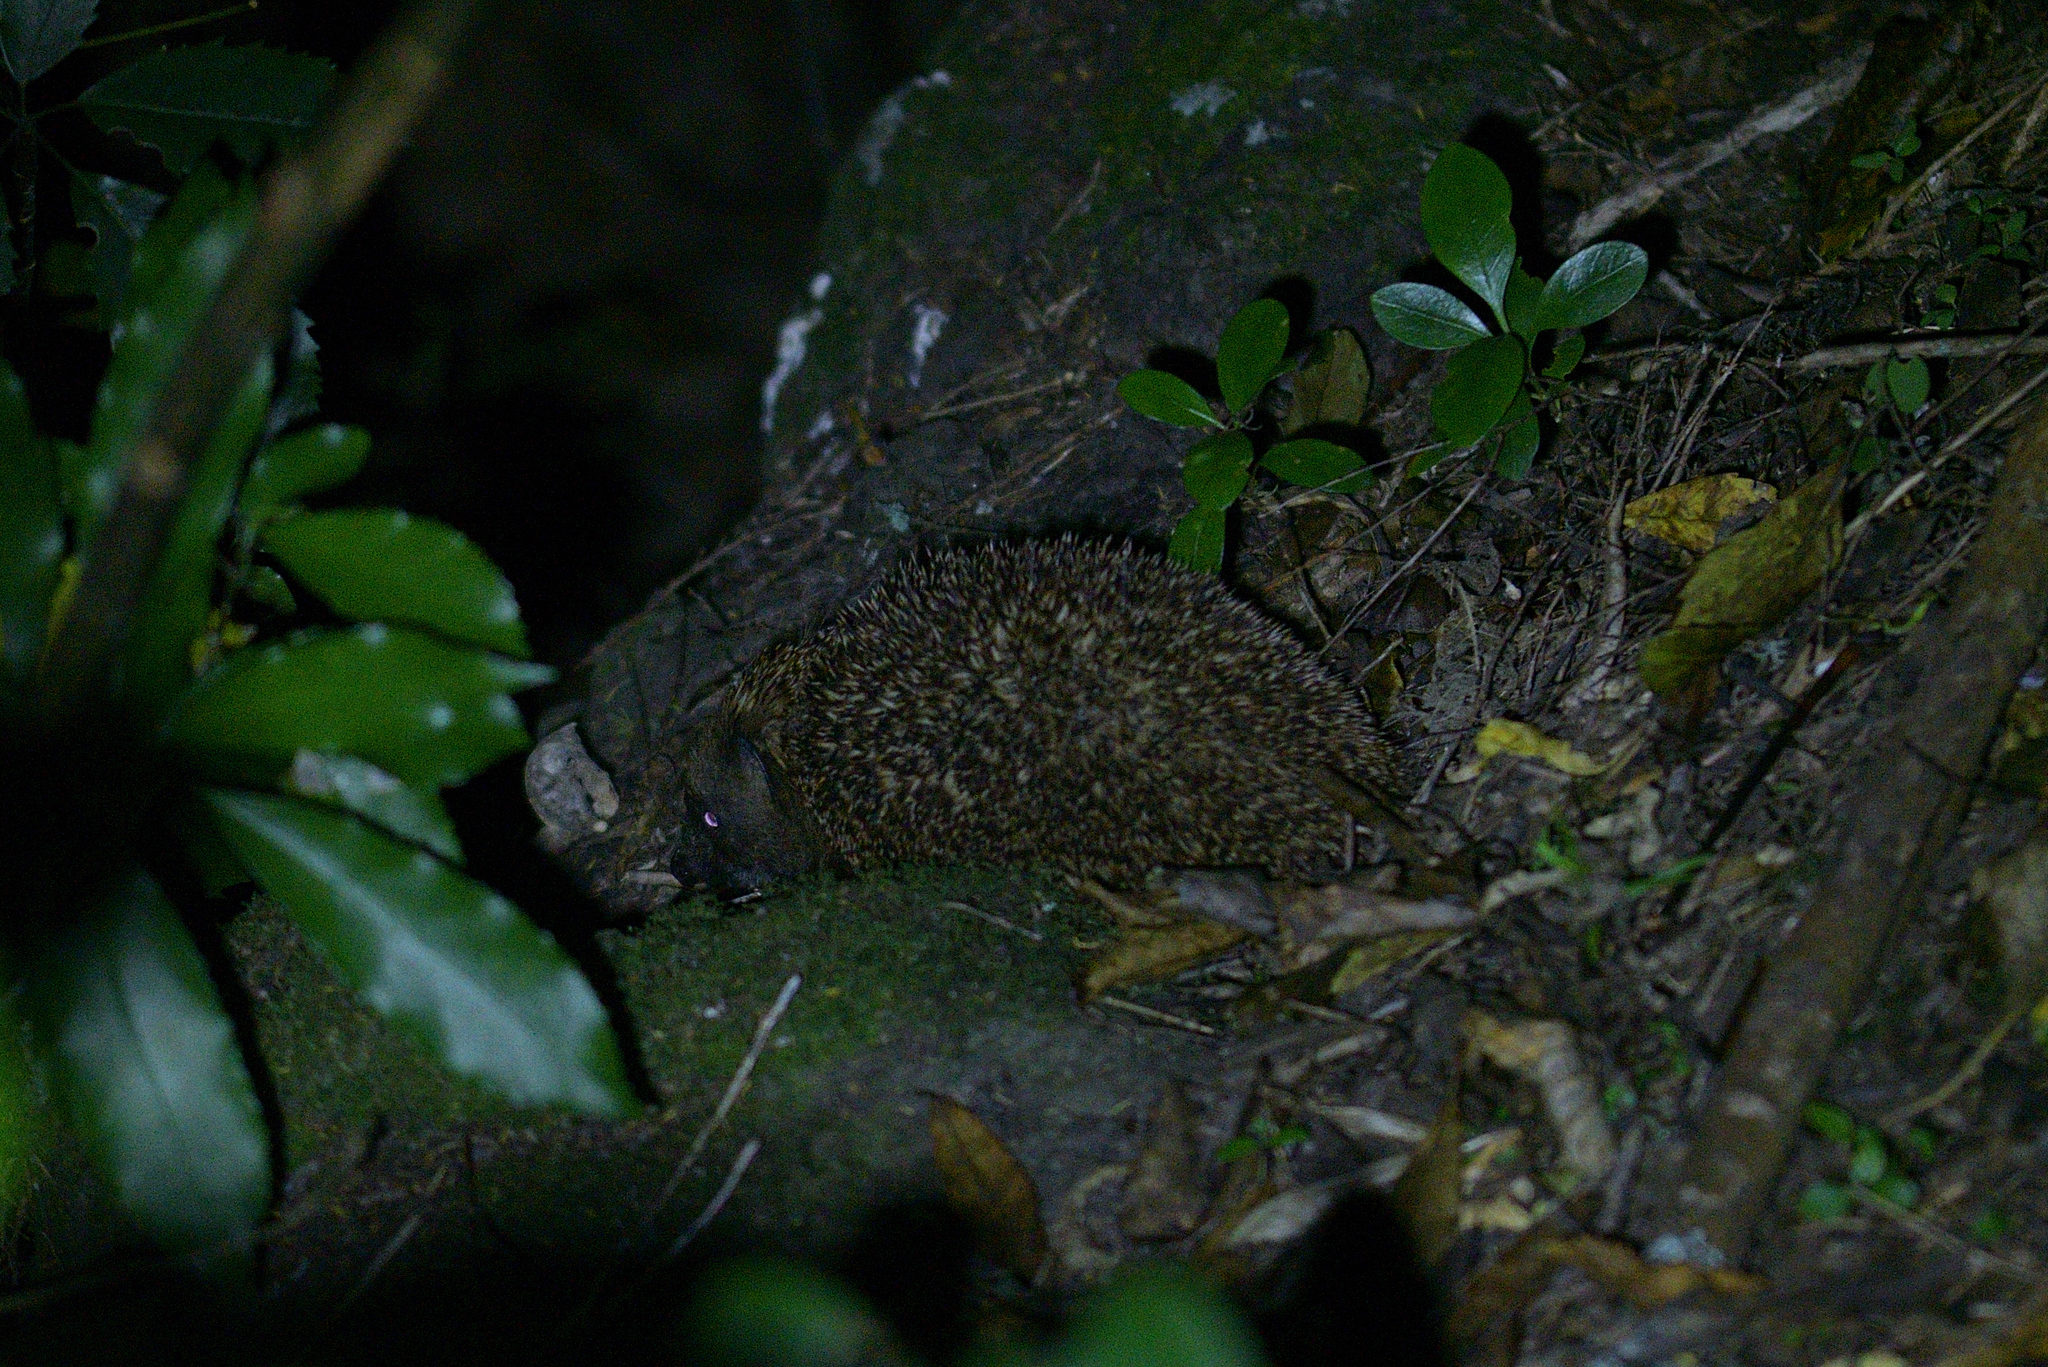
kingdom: Animalia
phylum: Chordata
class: Mammalia
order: Erinaceomorpha
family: Erinaceidae
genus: Erinaceus
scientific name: Erinaceus europaeus
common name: West european hedgehog
